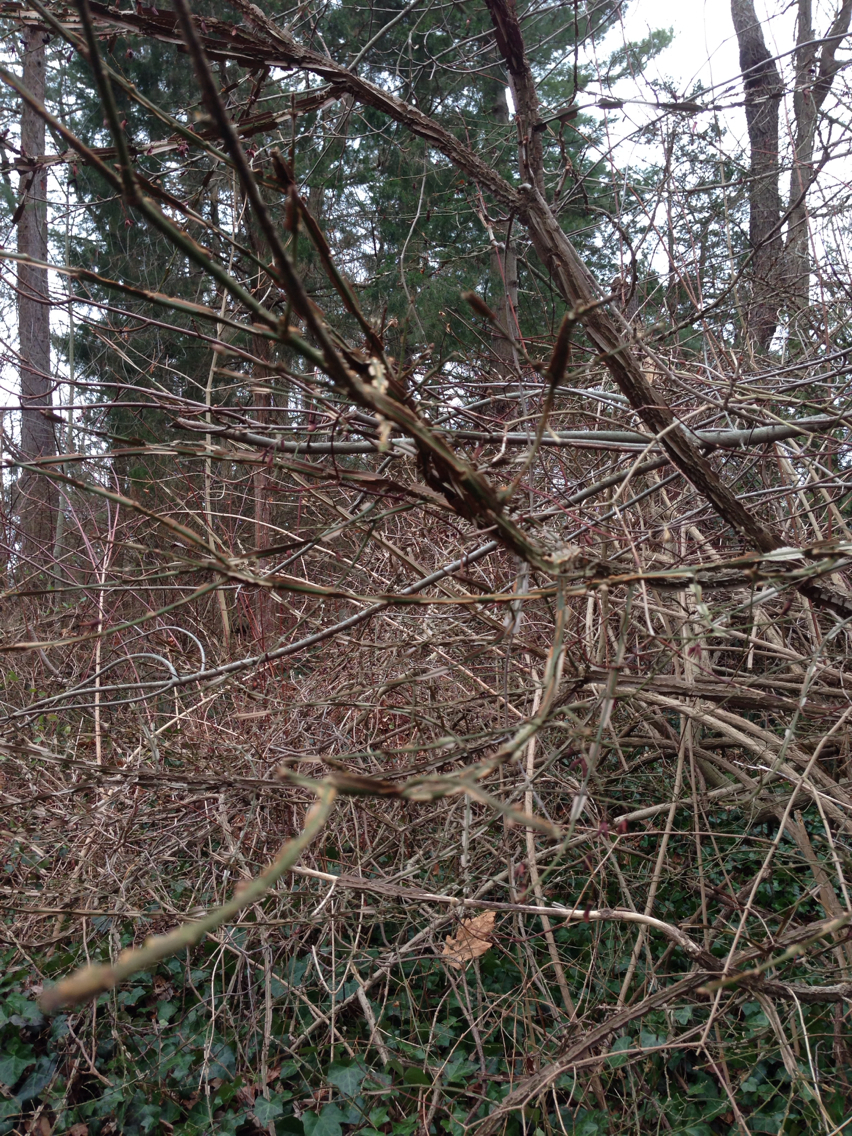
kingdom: Plantae
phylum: Tracheophyta
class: Magnoliopsida
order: Celastrales
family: Celastraceae
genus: Euonymus
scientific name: Euonymus alatus
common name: Winged euonymus
